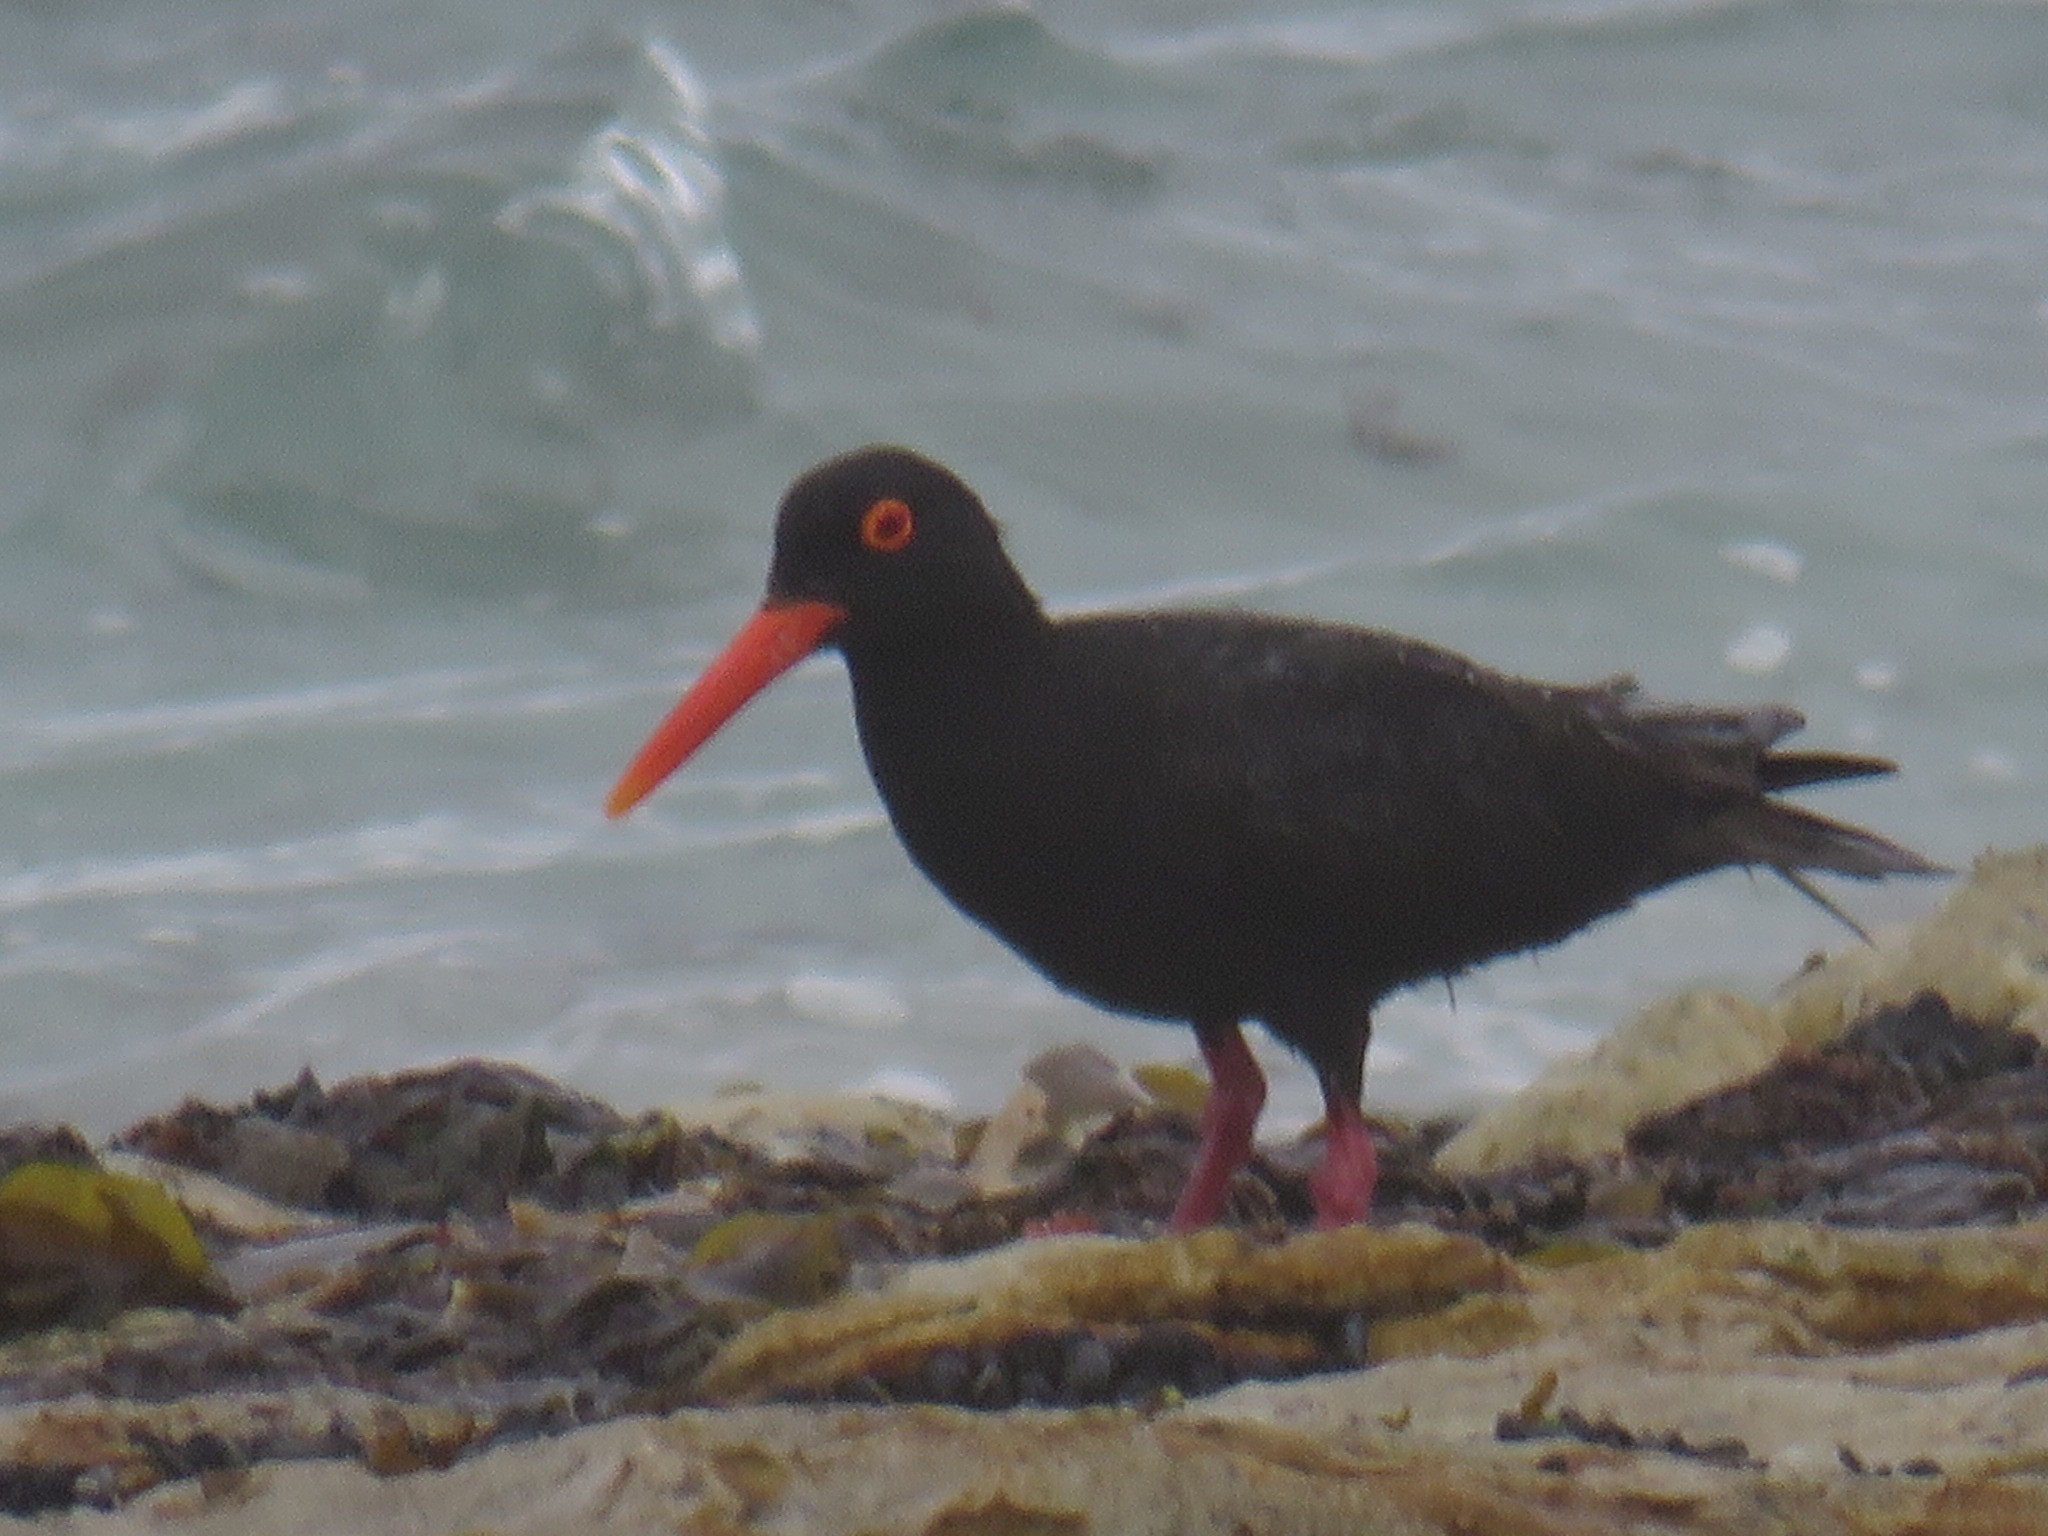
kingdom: Animalia
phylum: Chordata
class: Aves
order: Charadriiformes
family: Haematopodidae
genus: Haematopus
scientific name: Haematopus moquini
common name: African oystercatcher
